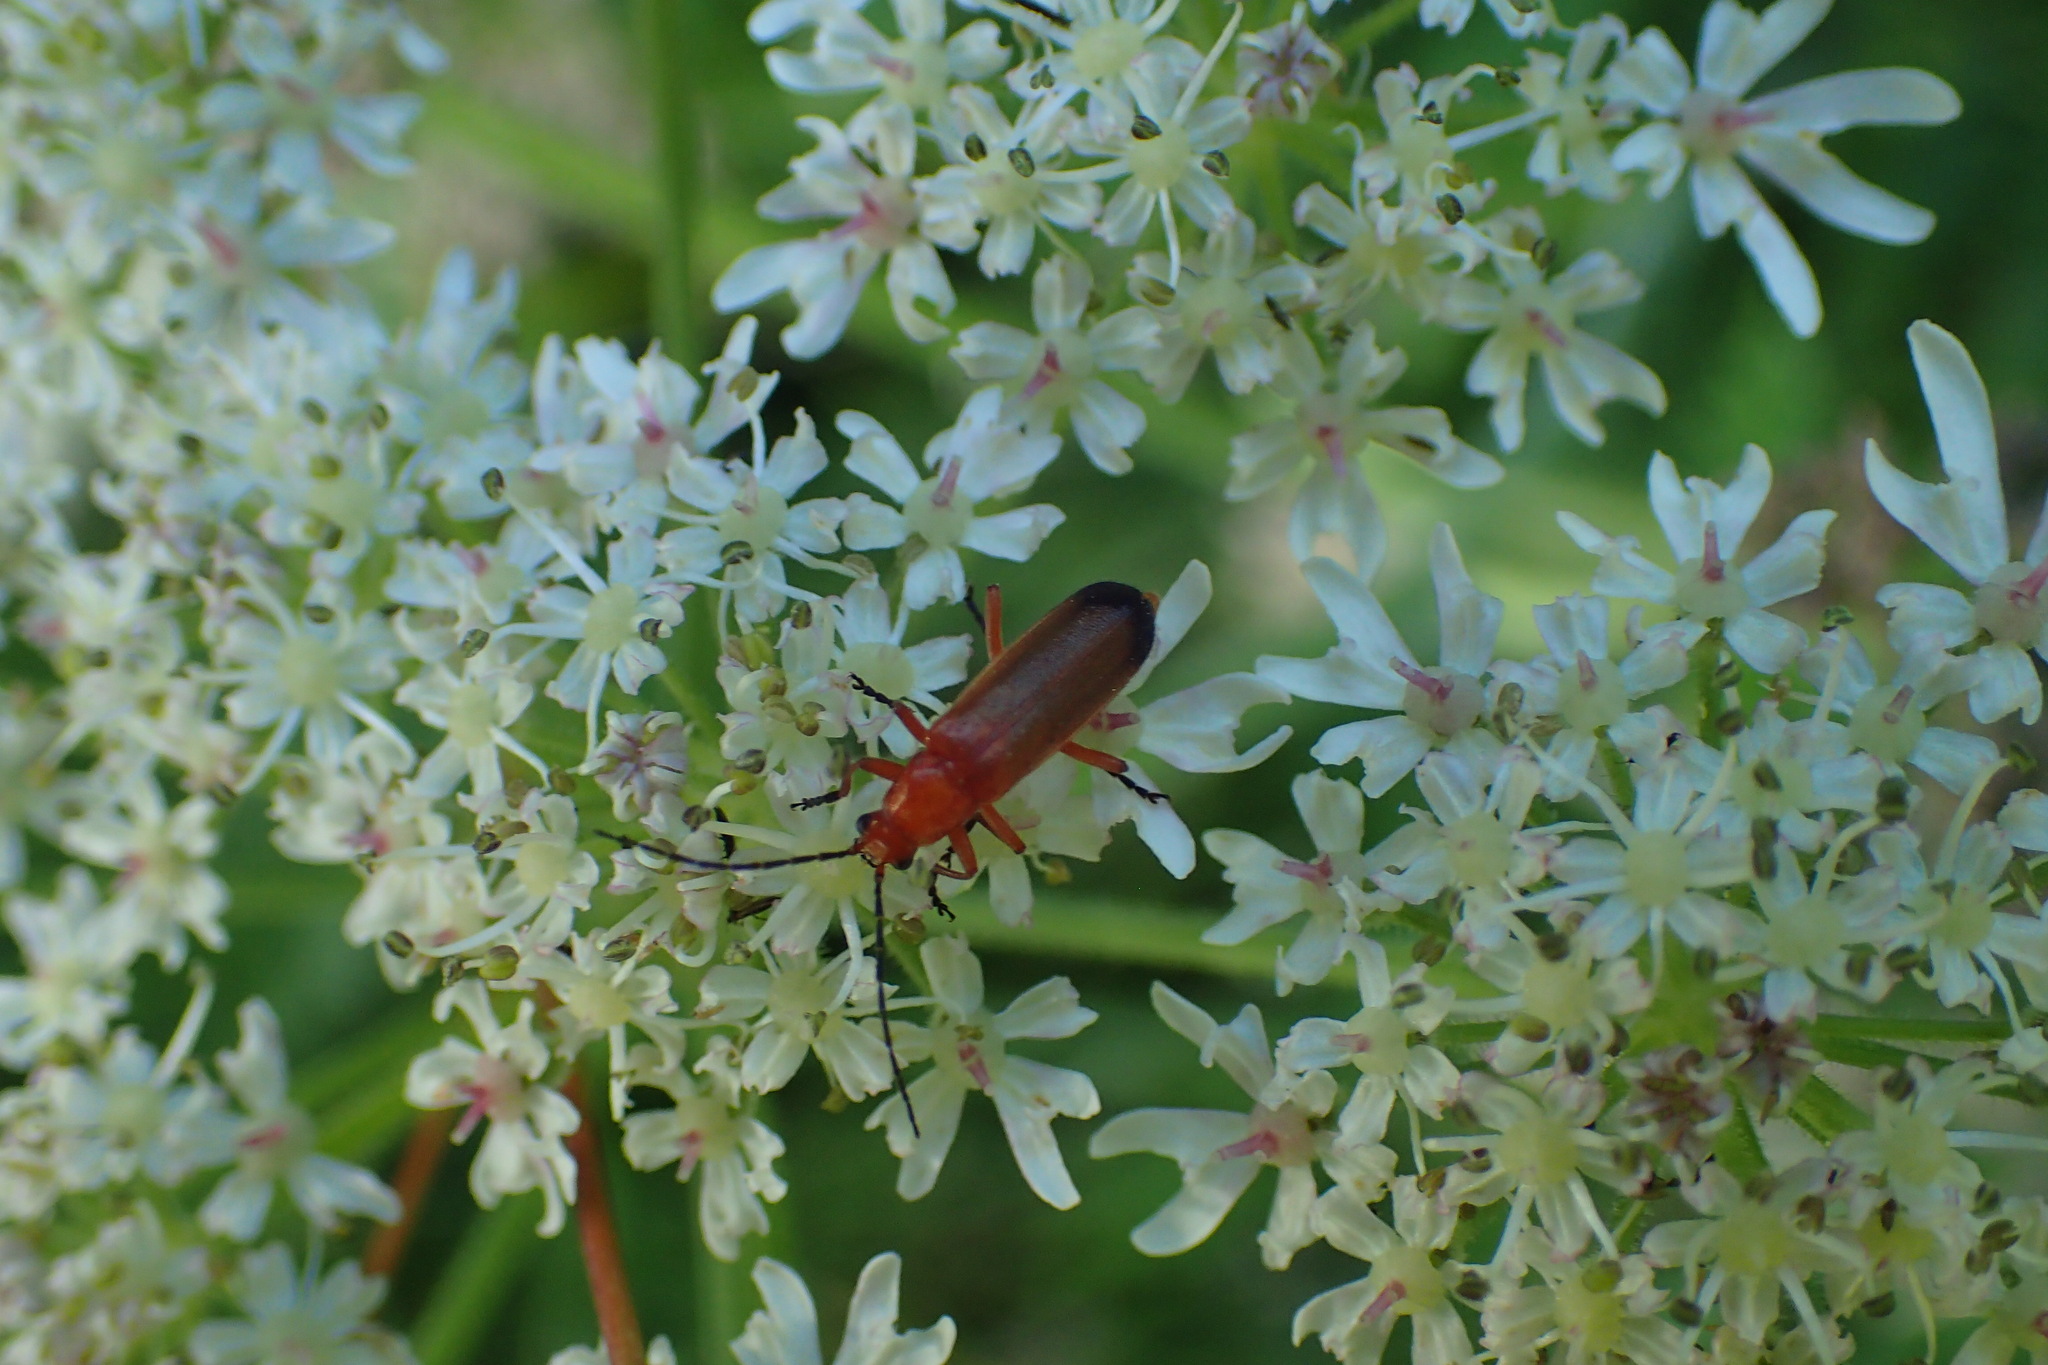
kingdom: Animalia
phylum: Arthropoda
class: Insecta
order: Coleoptera
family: Cantharidae
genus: Rhagonycha
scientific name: Rhagonycha fulva
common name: Common red soldier beetle
